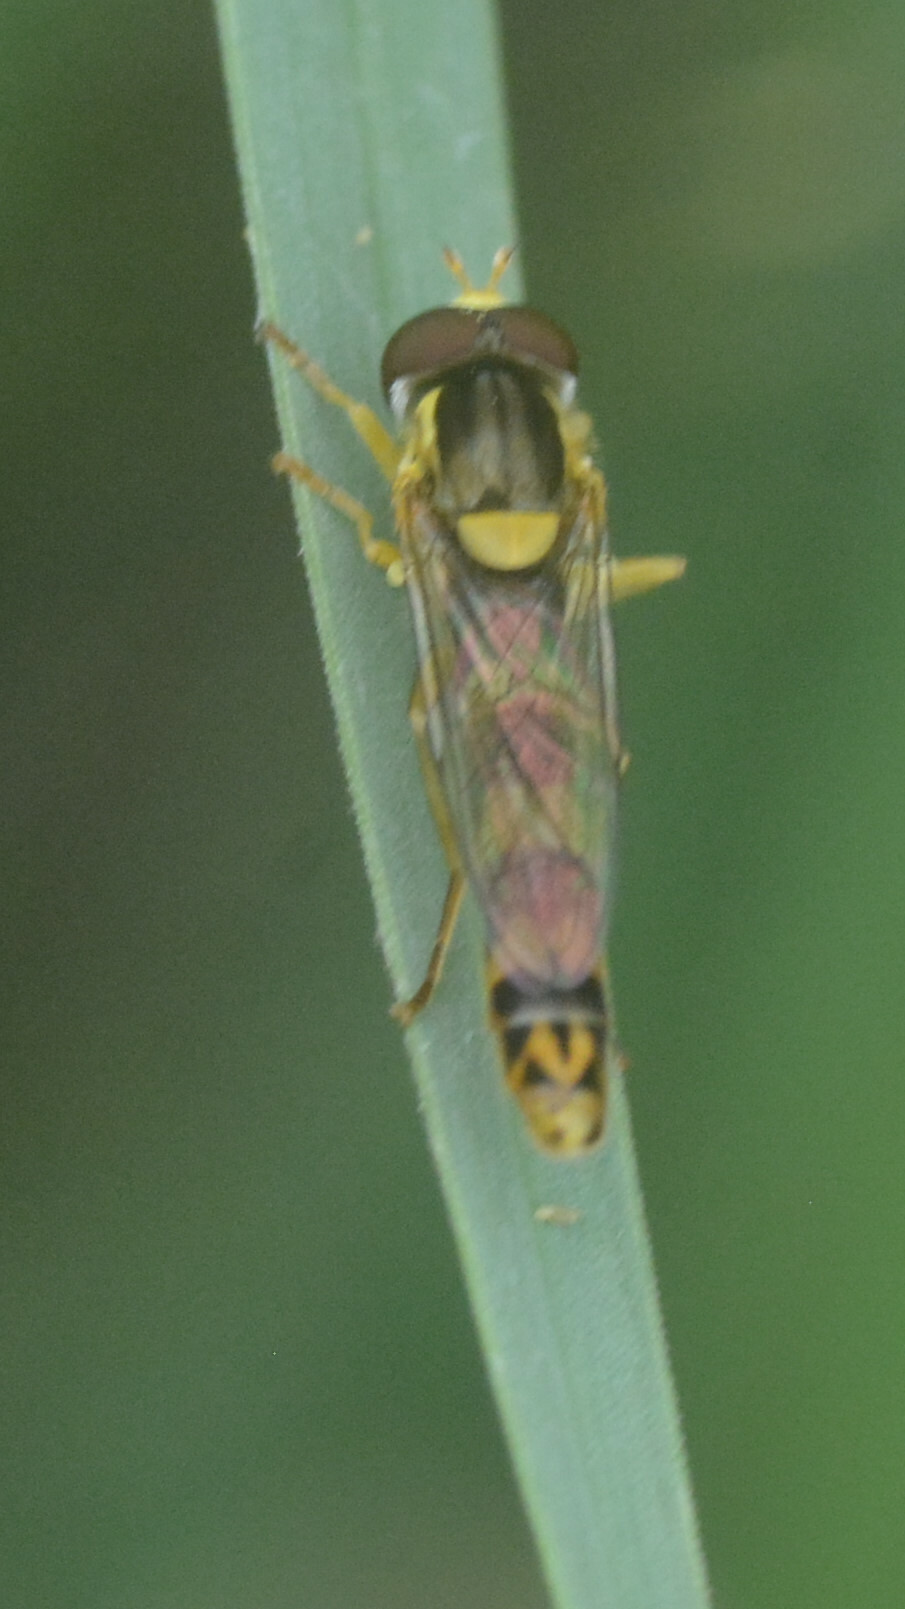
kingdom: Animalia
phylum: Arthropoda
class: Insecta
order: Diptera
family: Syrphidae
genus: Sphaerophoria
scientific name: Sphaerophoria scripta
